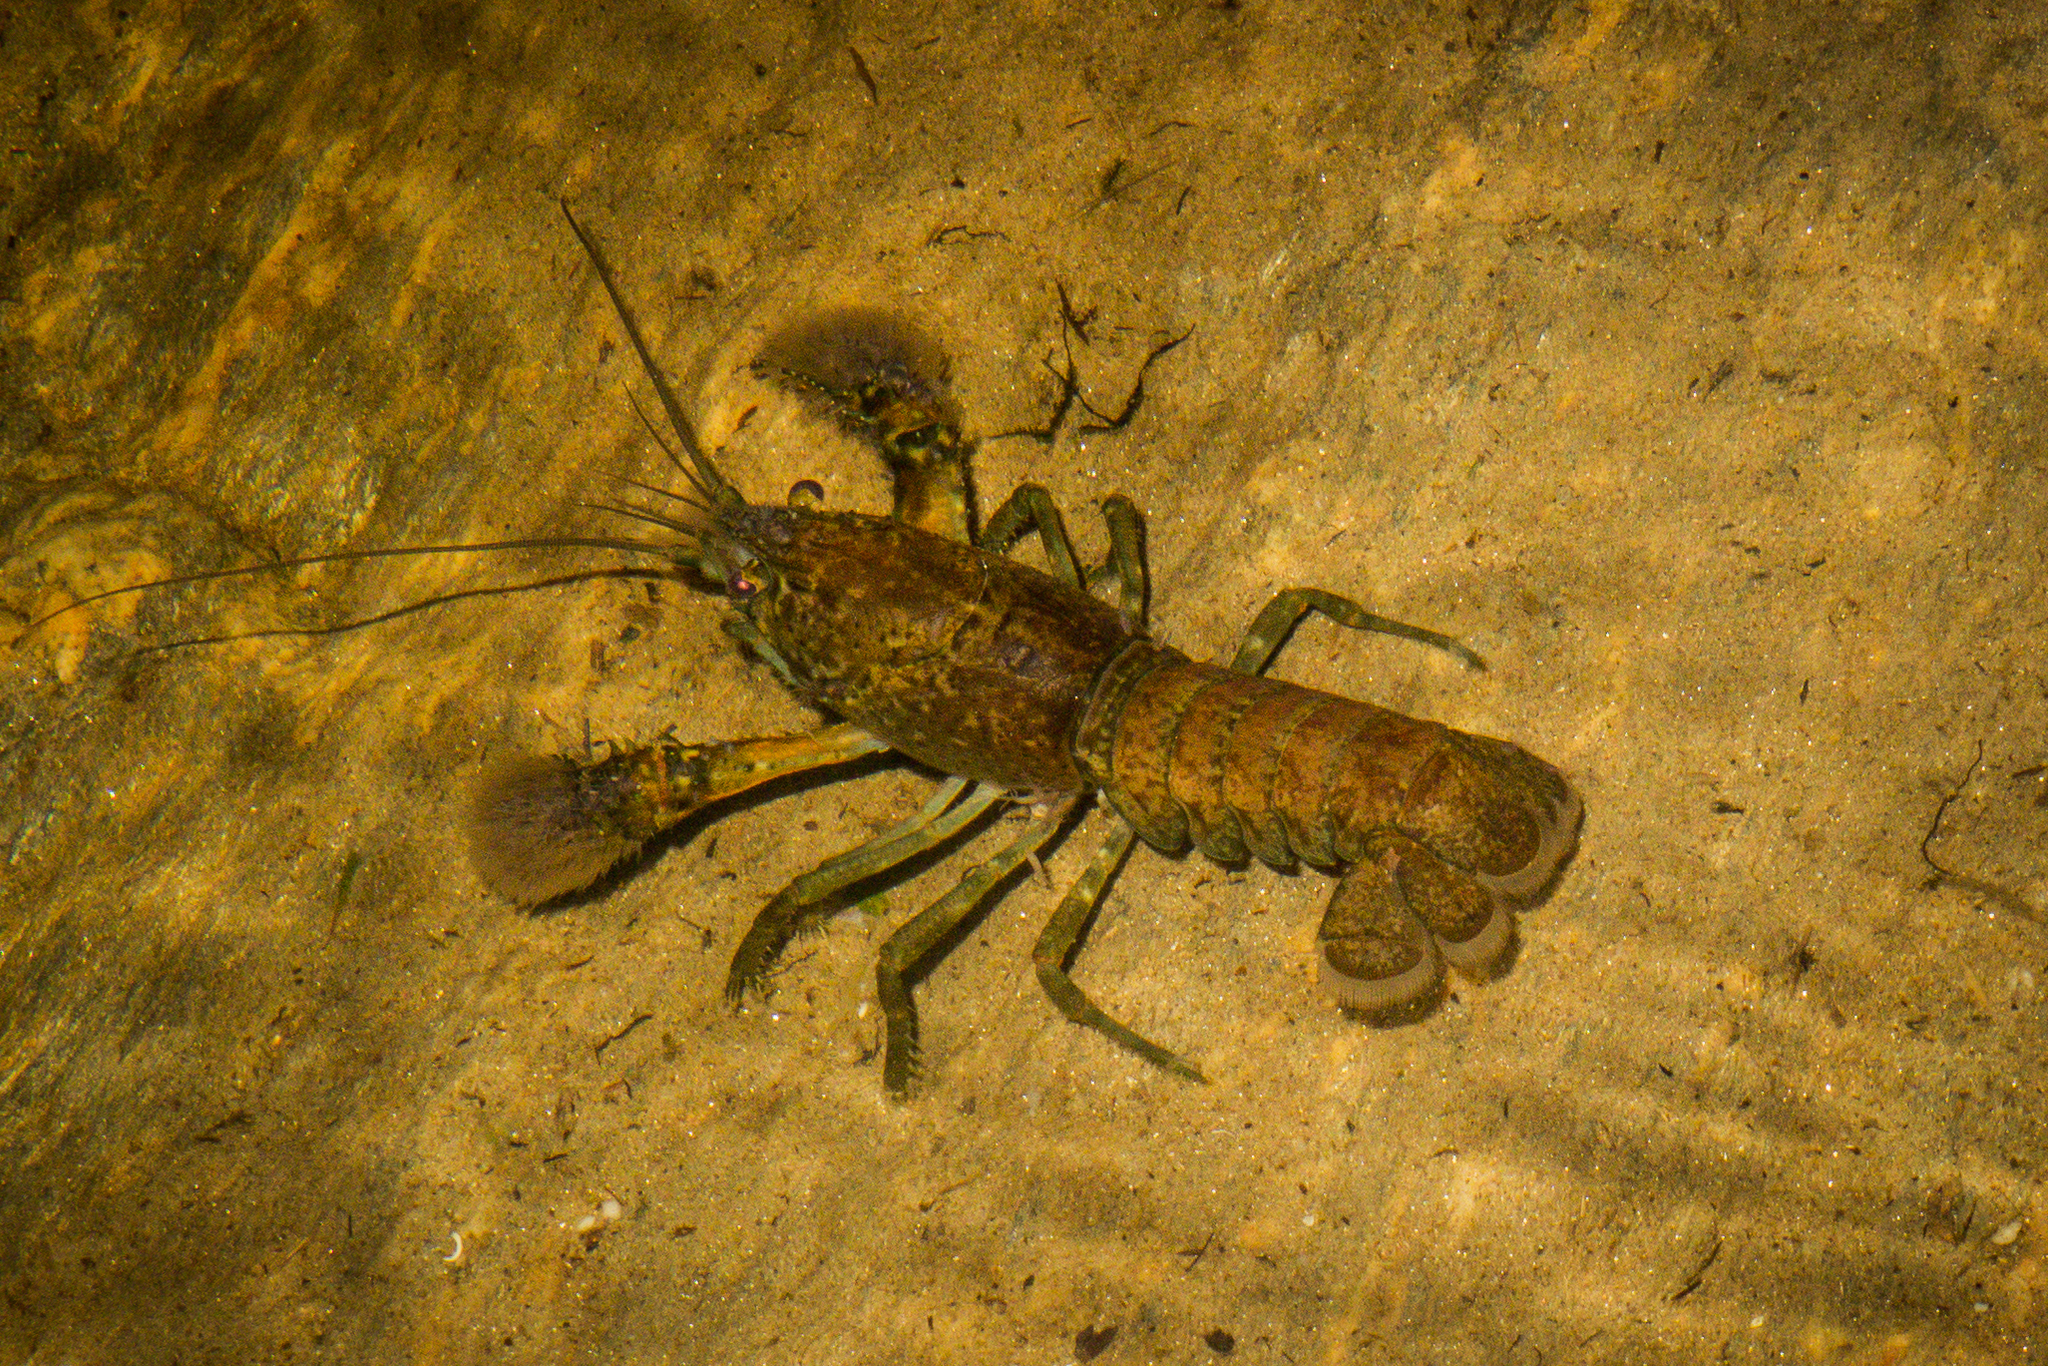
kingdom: Animalia
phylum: Arthropoda
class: Malacostraca
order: Decapoda
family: Parastacidae
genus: Paranephrops
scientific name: Paranephrops zealandicus
